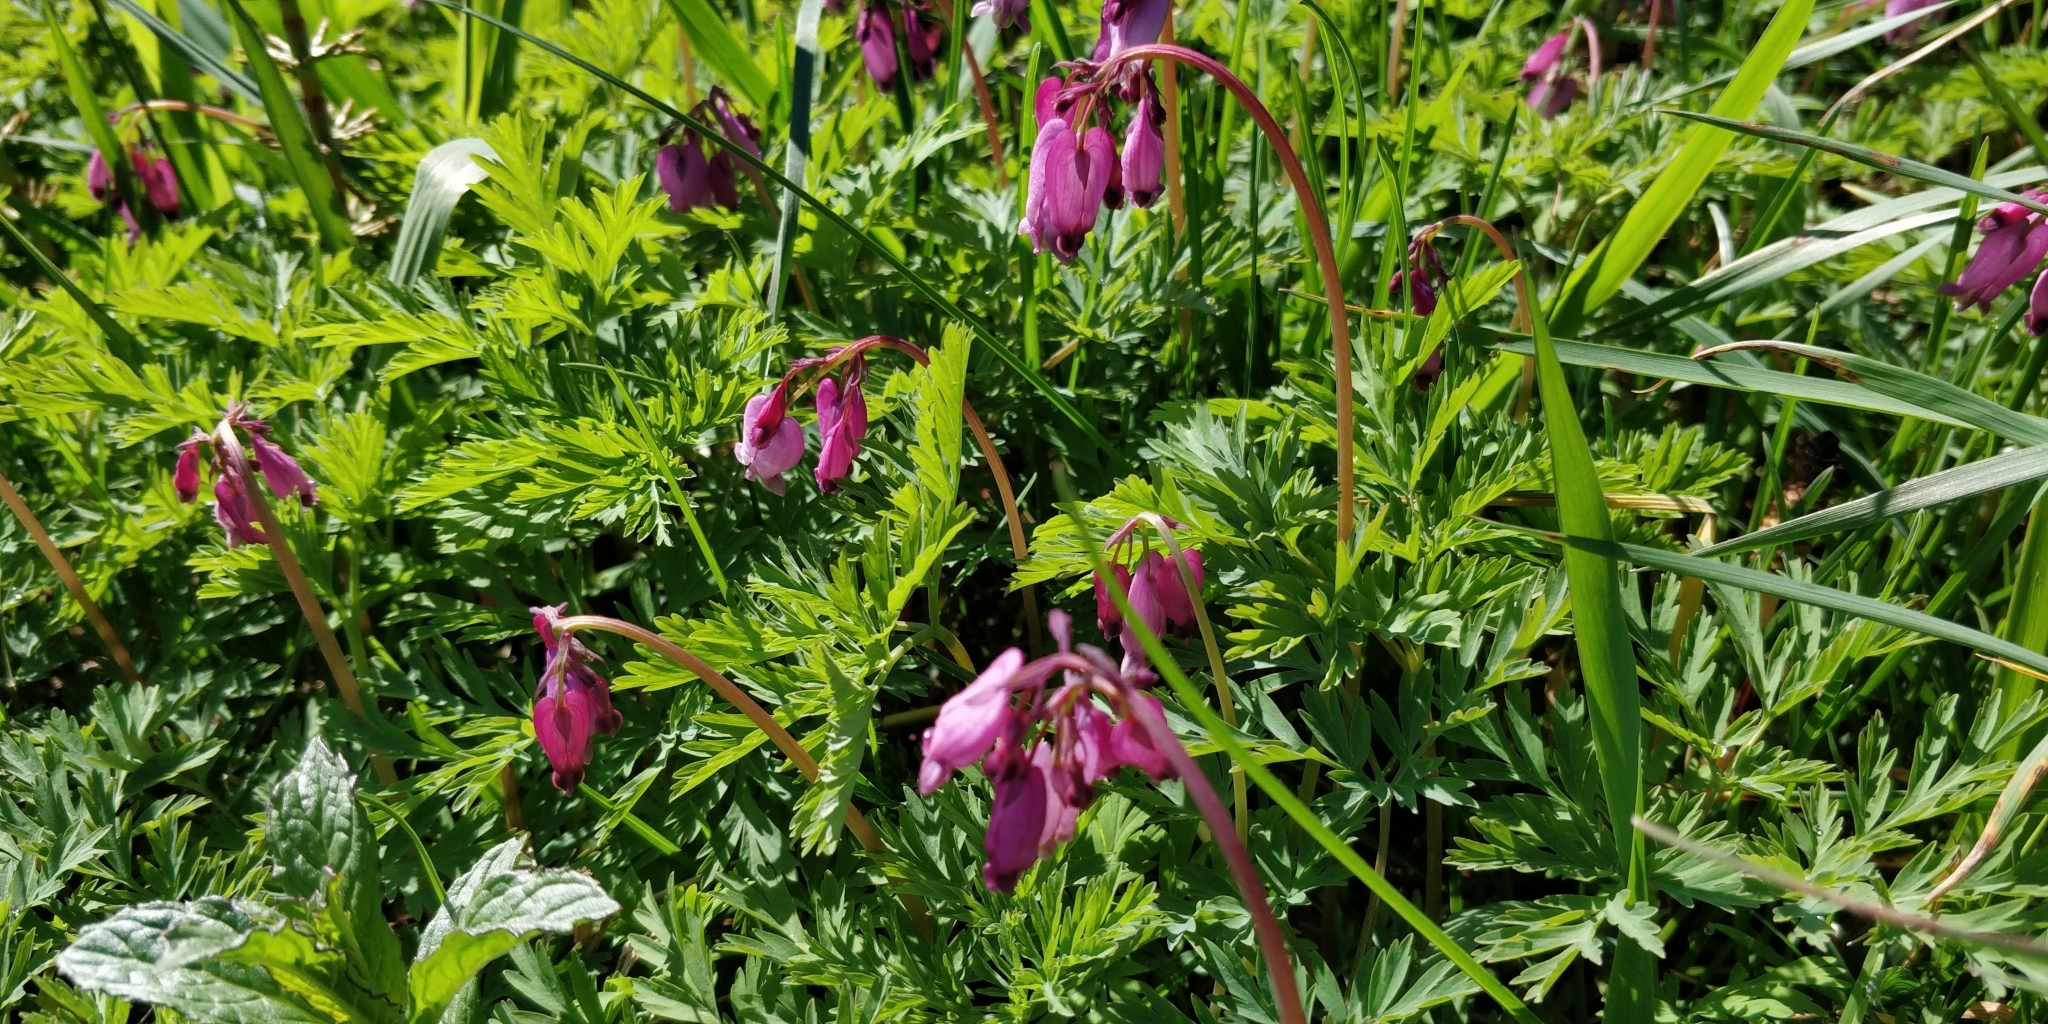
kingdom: Plantae
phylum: Tracheophyta
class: Magnoliopsida
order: Ranunculales
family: Papaveraceae
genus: Dicentra
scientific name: Dicentra formosa
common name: Bleeding-heart
